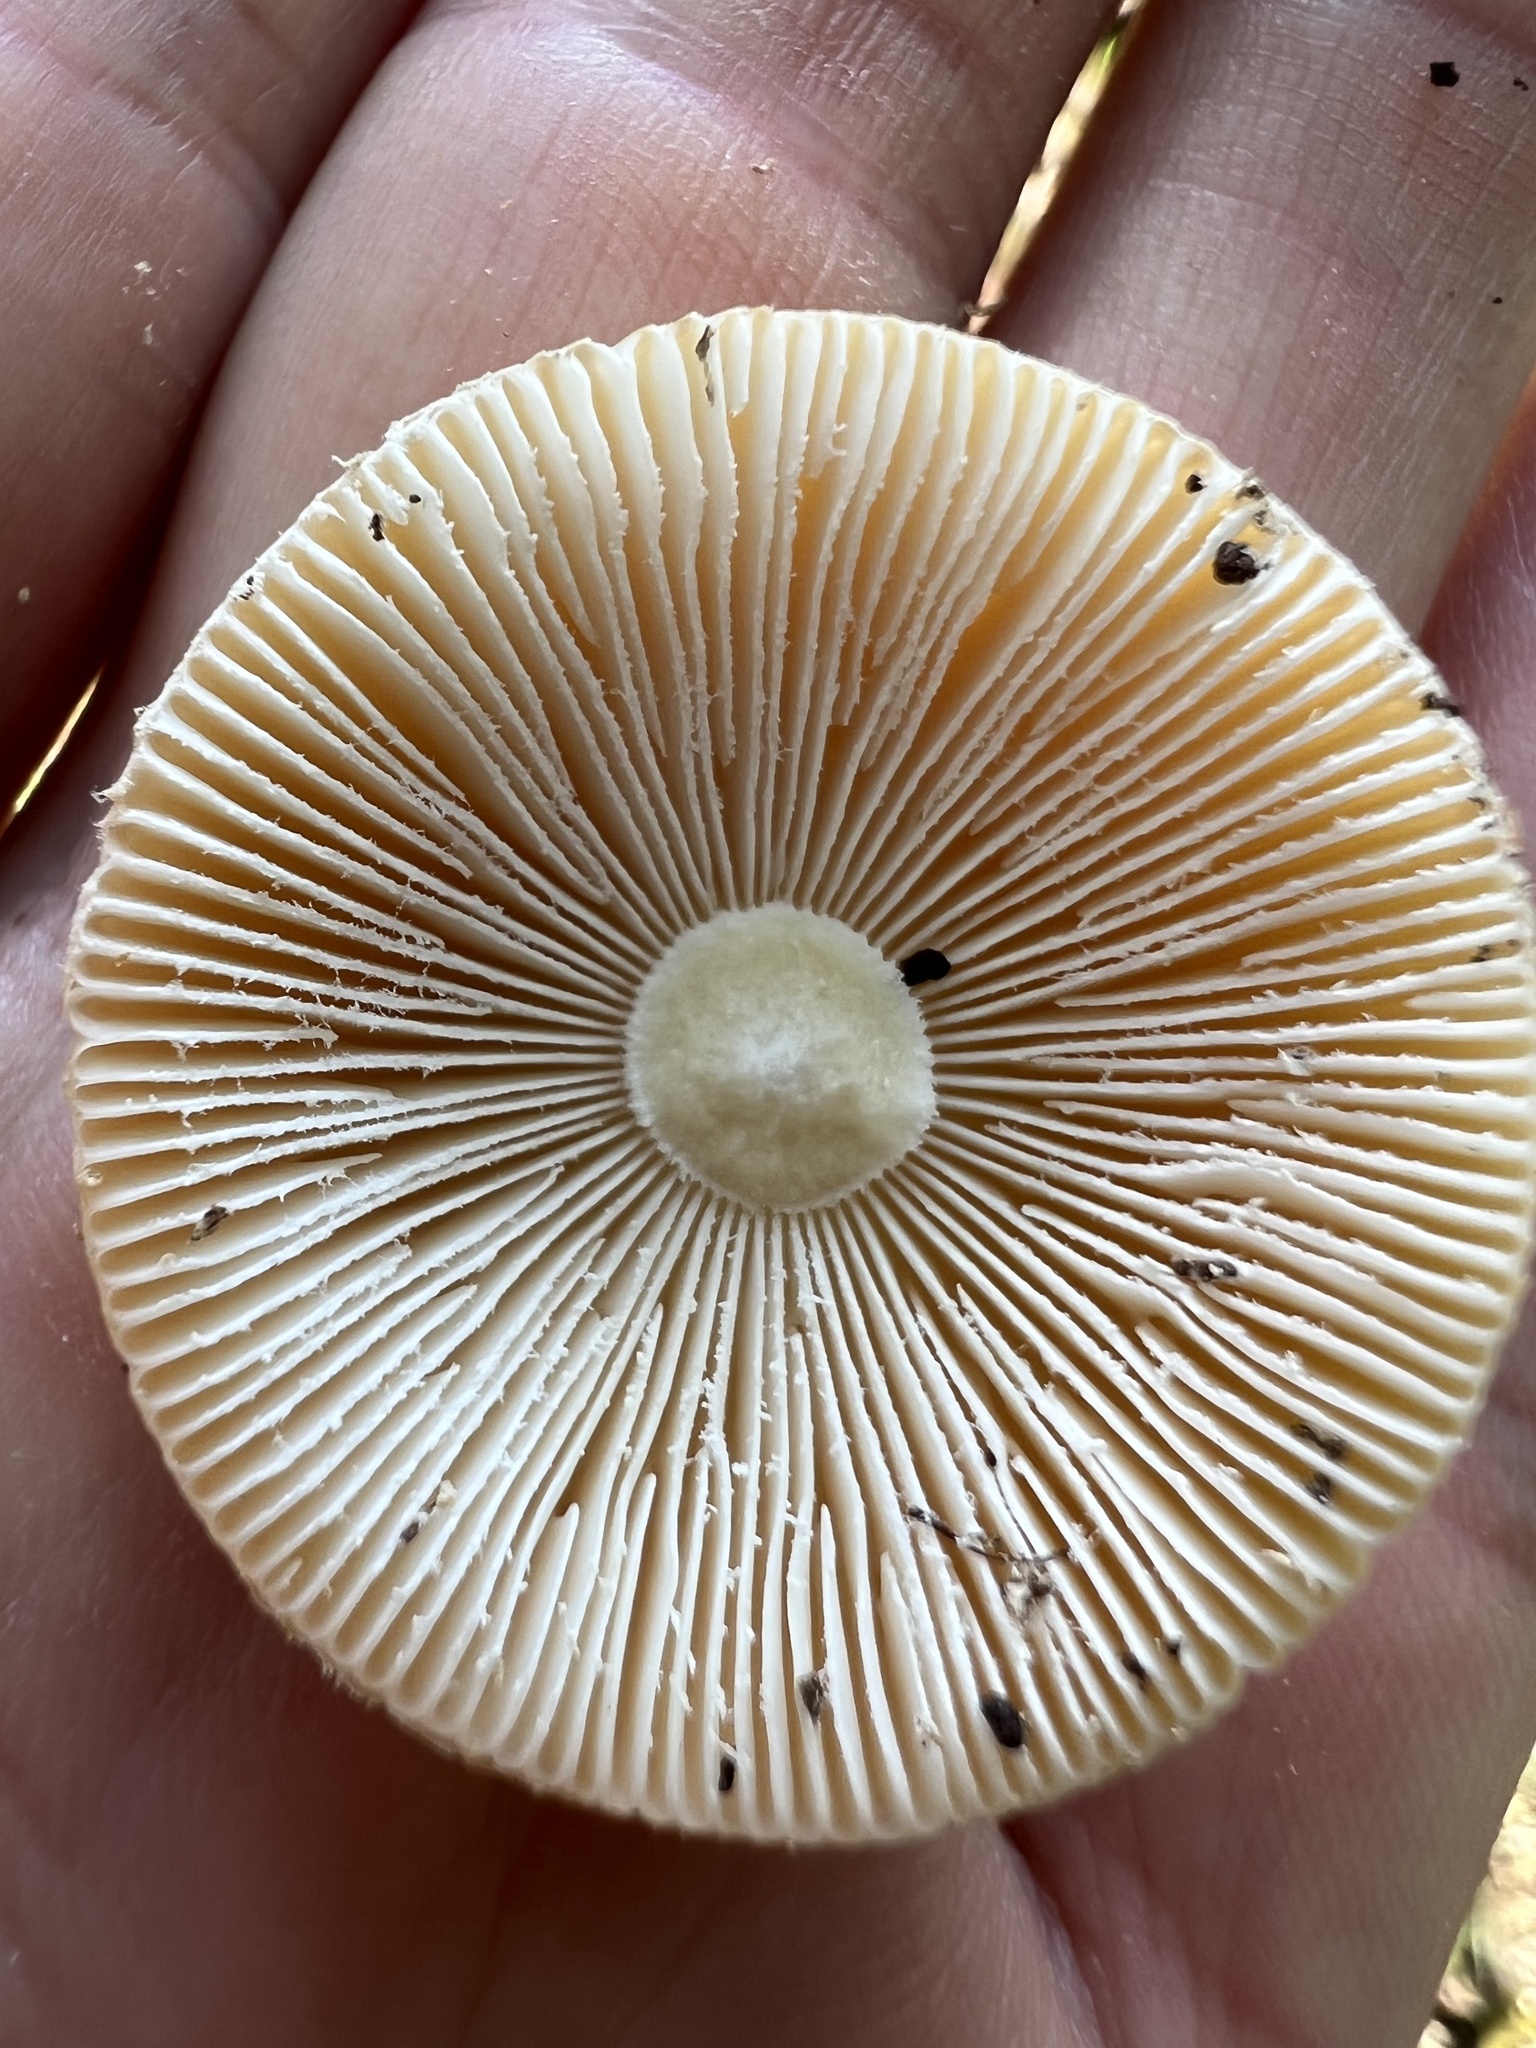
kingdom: Fungi
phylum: Basidiomycota
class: Agaricomycetes
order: Agaricales
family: Amanitaceae
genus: Amanita
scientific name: Amanita crenulata
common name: Poison champagne amanita
